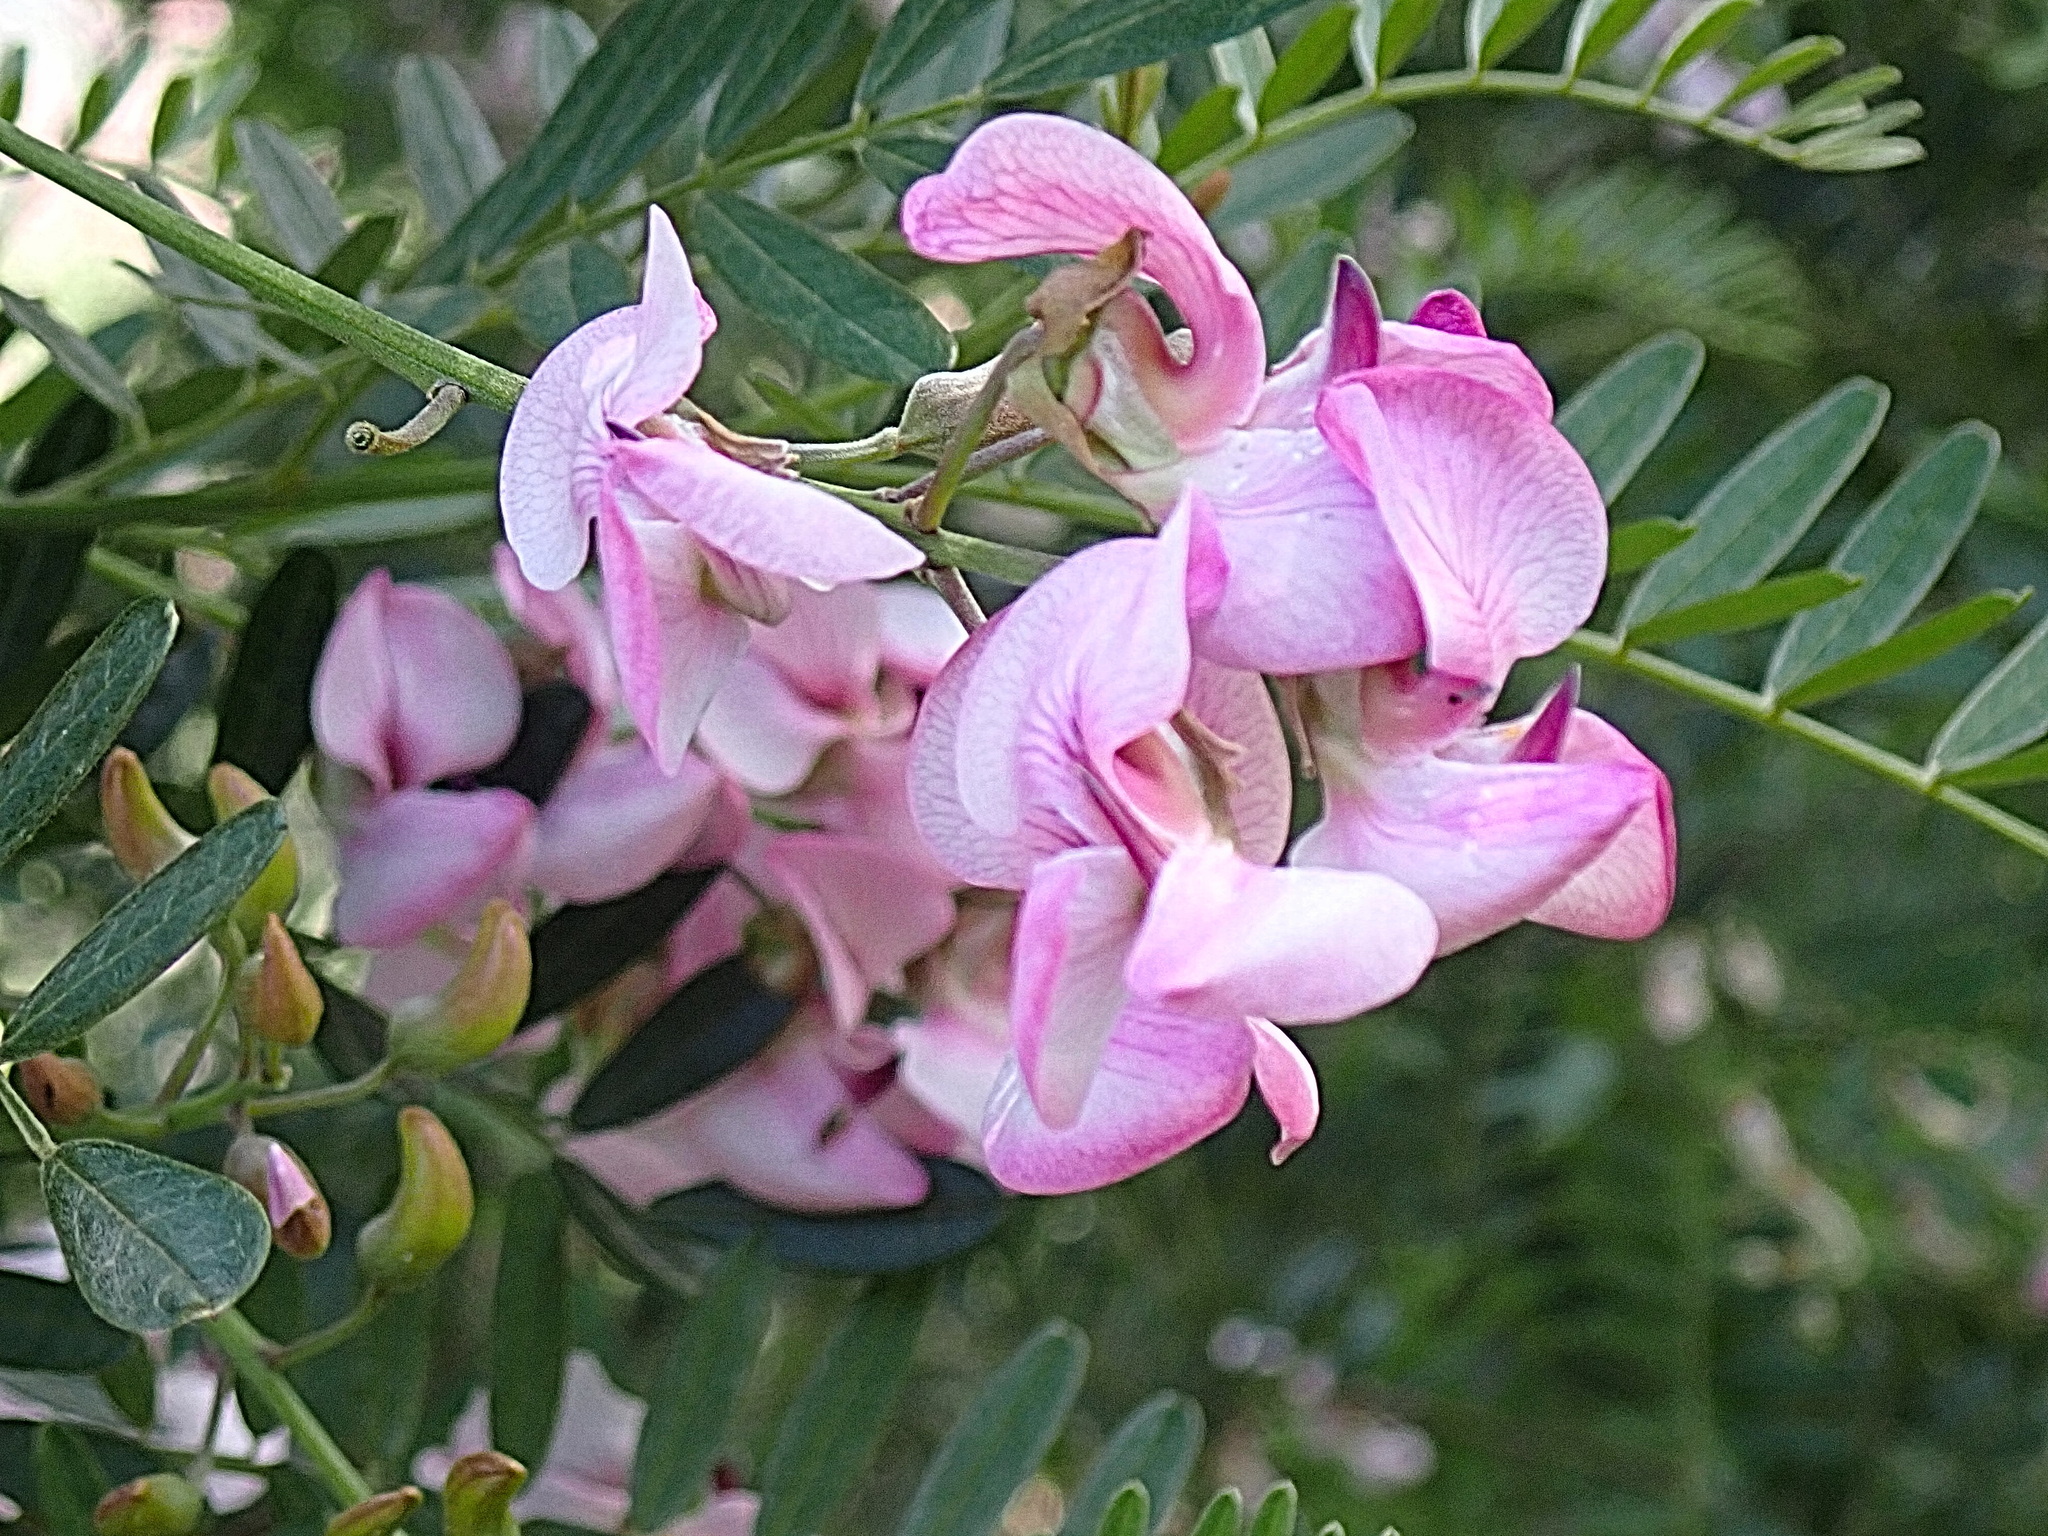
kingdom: Plantae
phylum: Tracheophyta
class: Magnoliopsida
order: Fabales
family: Fabaceae
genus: Virgilia
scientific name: Virgilia oroboides
